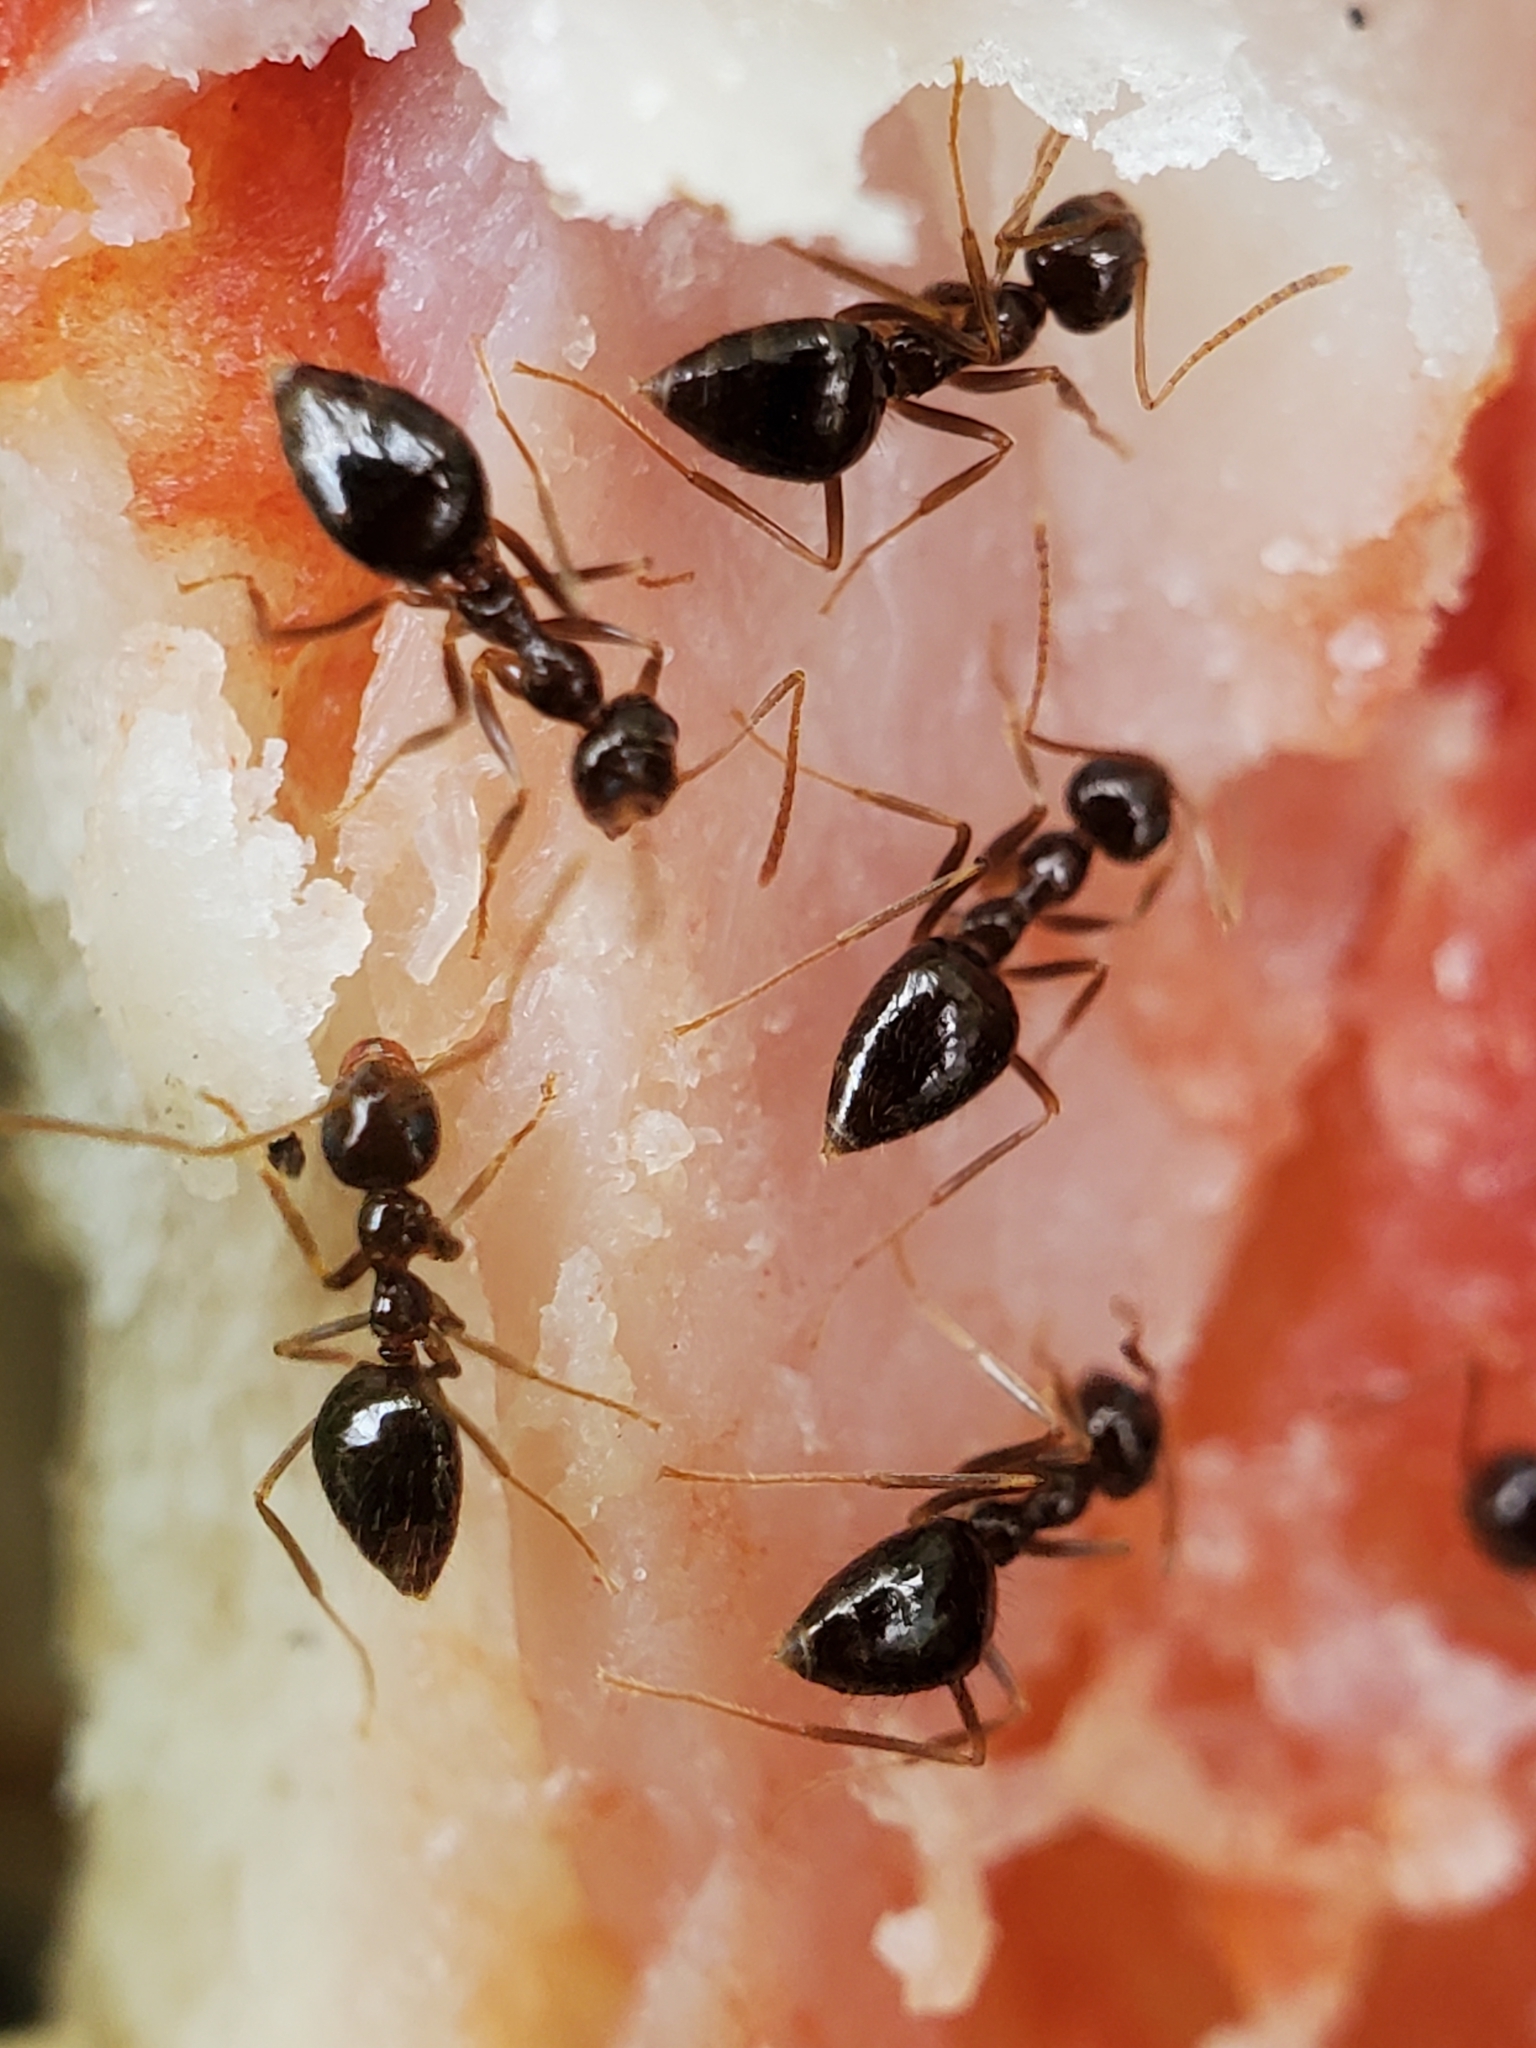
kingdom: Animalia
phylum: Arthropoda
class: Insecta
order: Hymenoptera
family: Formicidae
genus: Prenolepis
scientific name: Prenolepis imparis
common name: Small honey ant
